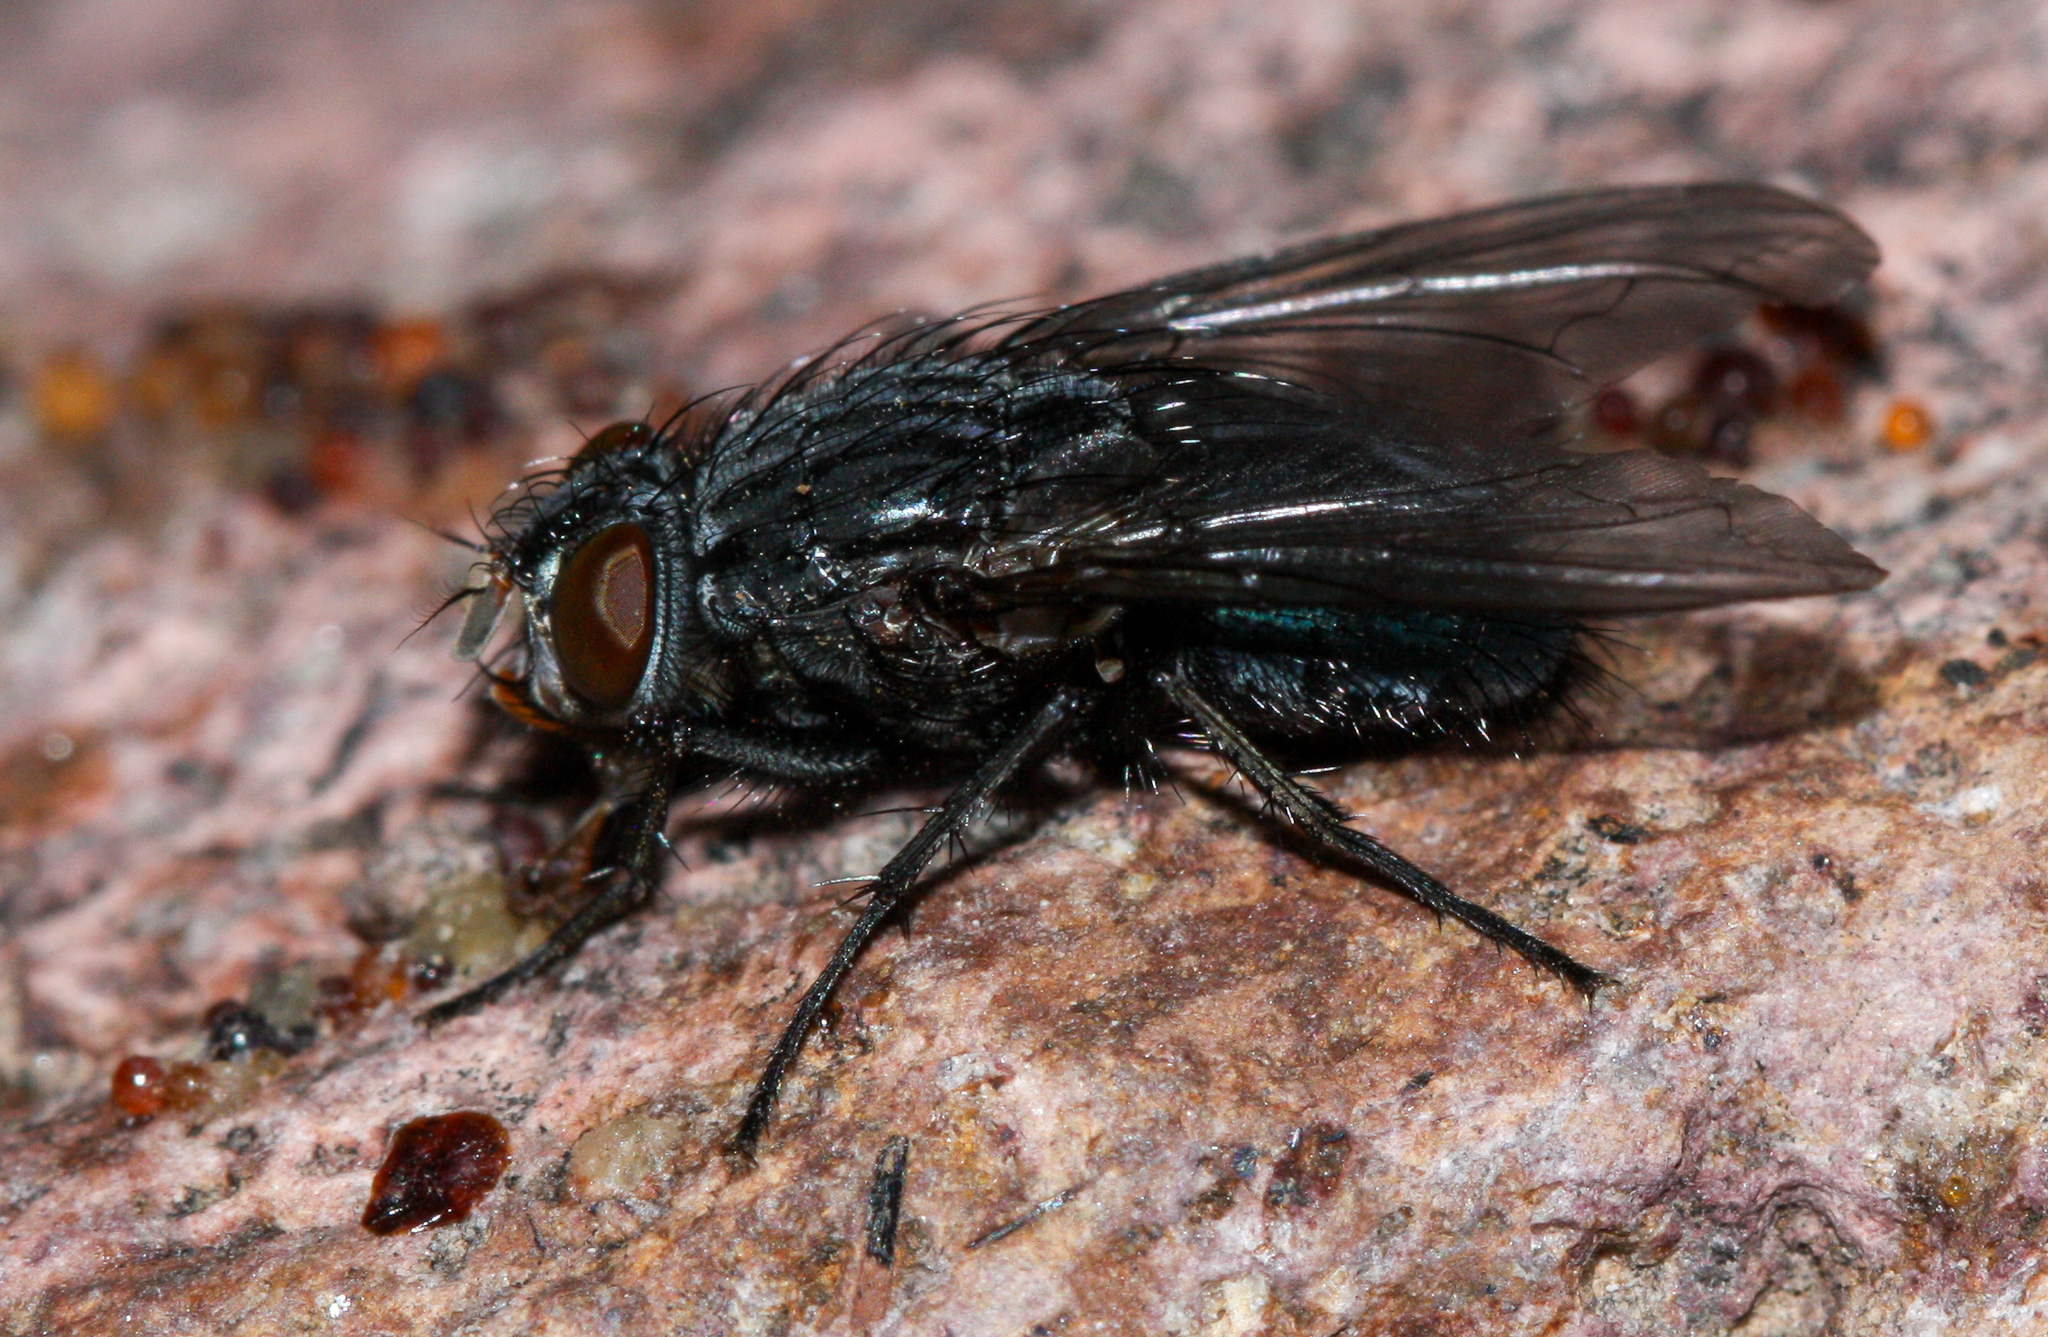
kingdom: Animalia
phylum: Arthropoda
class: Insecta
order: Diptera
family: Calliphoridae
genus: Calliphora
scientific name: Calliphora coloradensis
